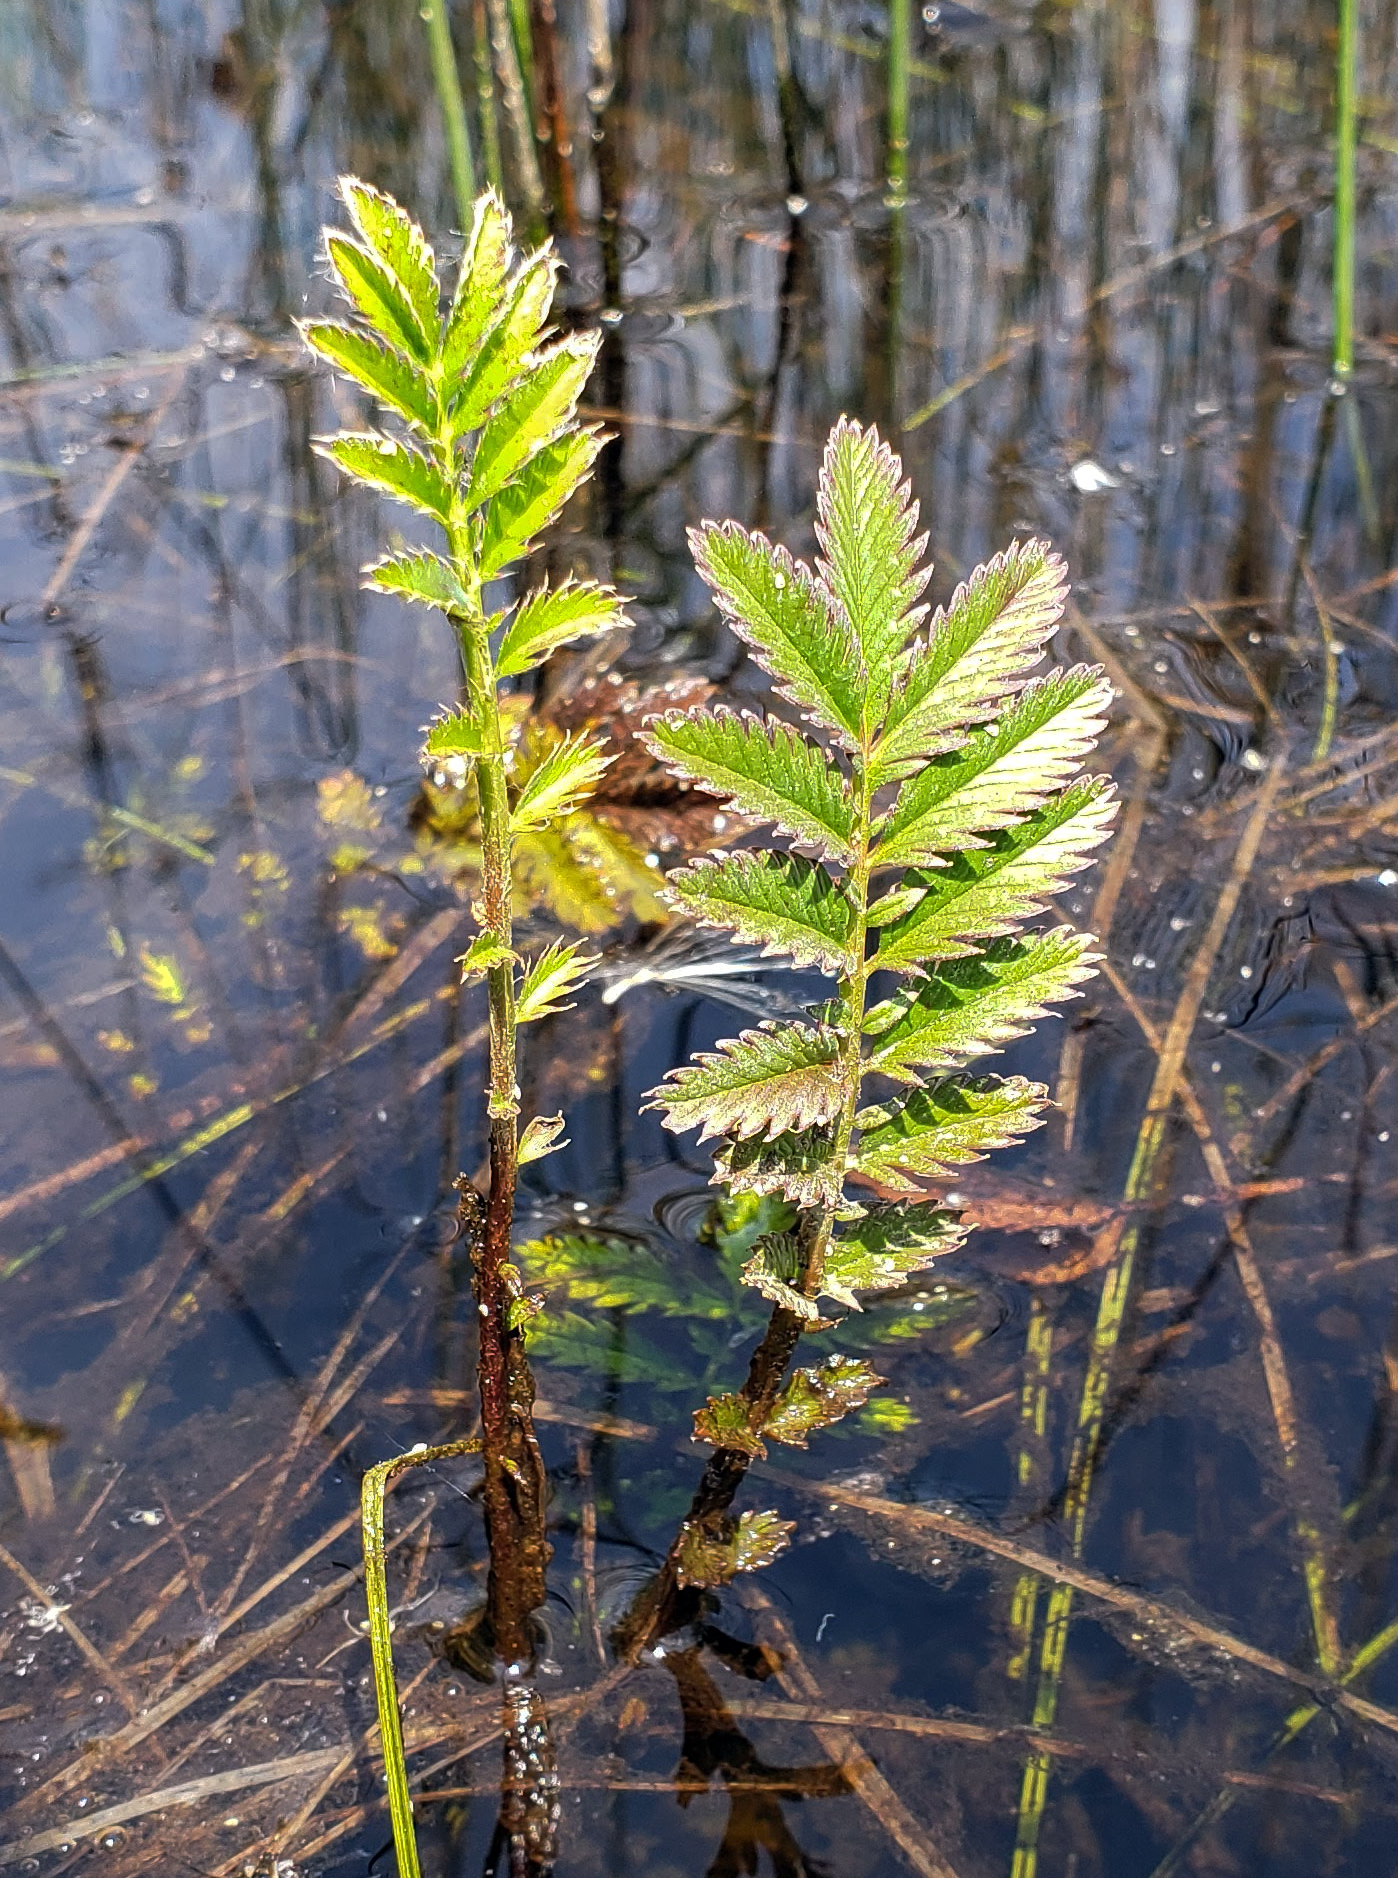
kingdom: Plantae
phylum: Tracheophyta
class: Magnoliopsida
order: Rosales
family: Rosaceae
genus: Argentina
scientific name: Argentina anserina
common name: Common silverweed
